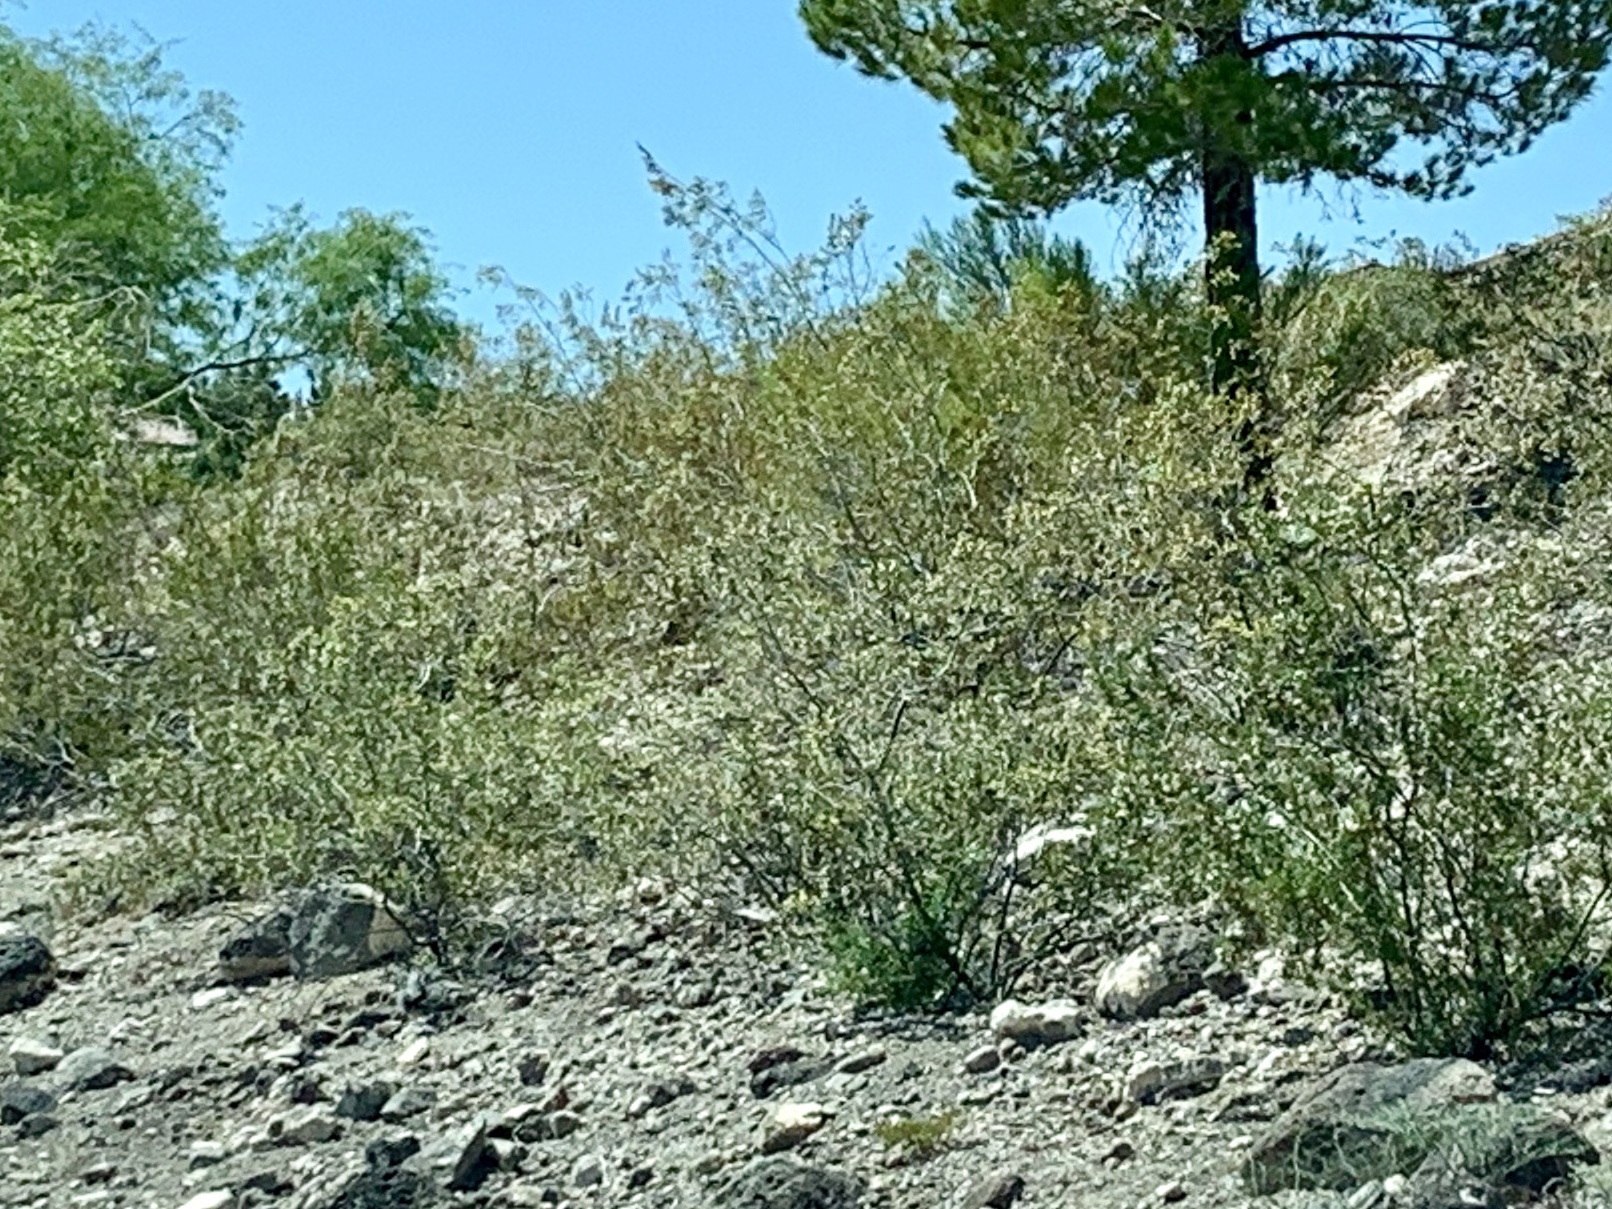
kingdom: Plantae
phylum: Tracheophyta
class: Magnoliopsida
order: Zygophyllales
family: Zygophyllaceae
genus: Larrea
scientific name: Larrea tridentata
